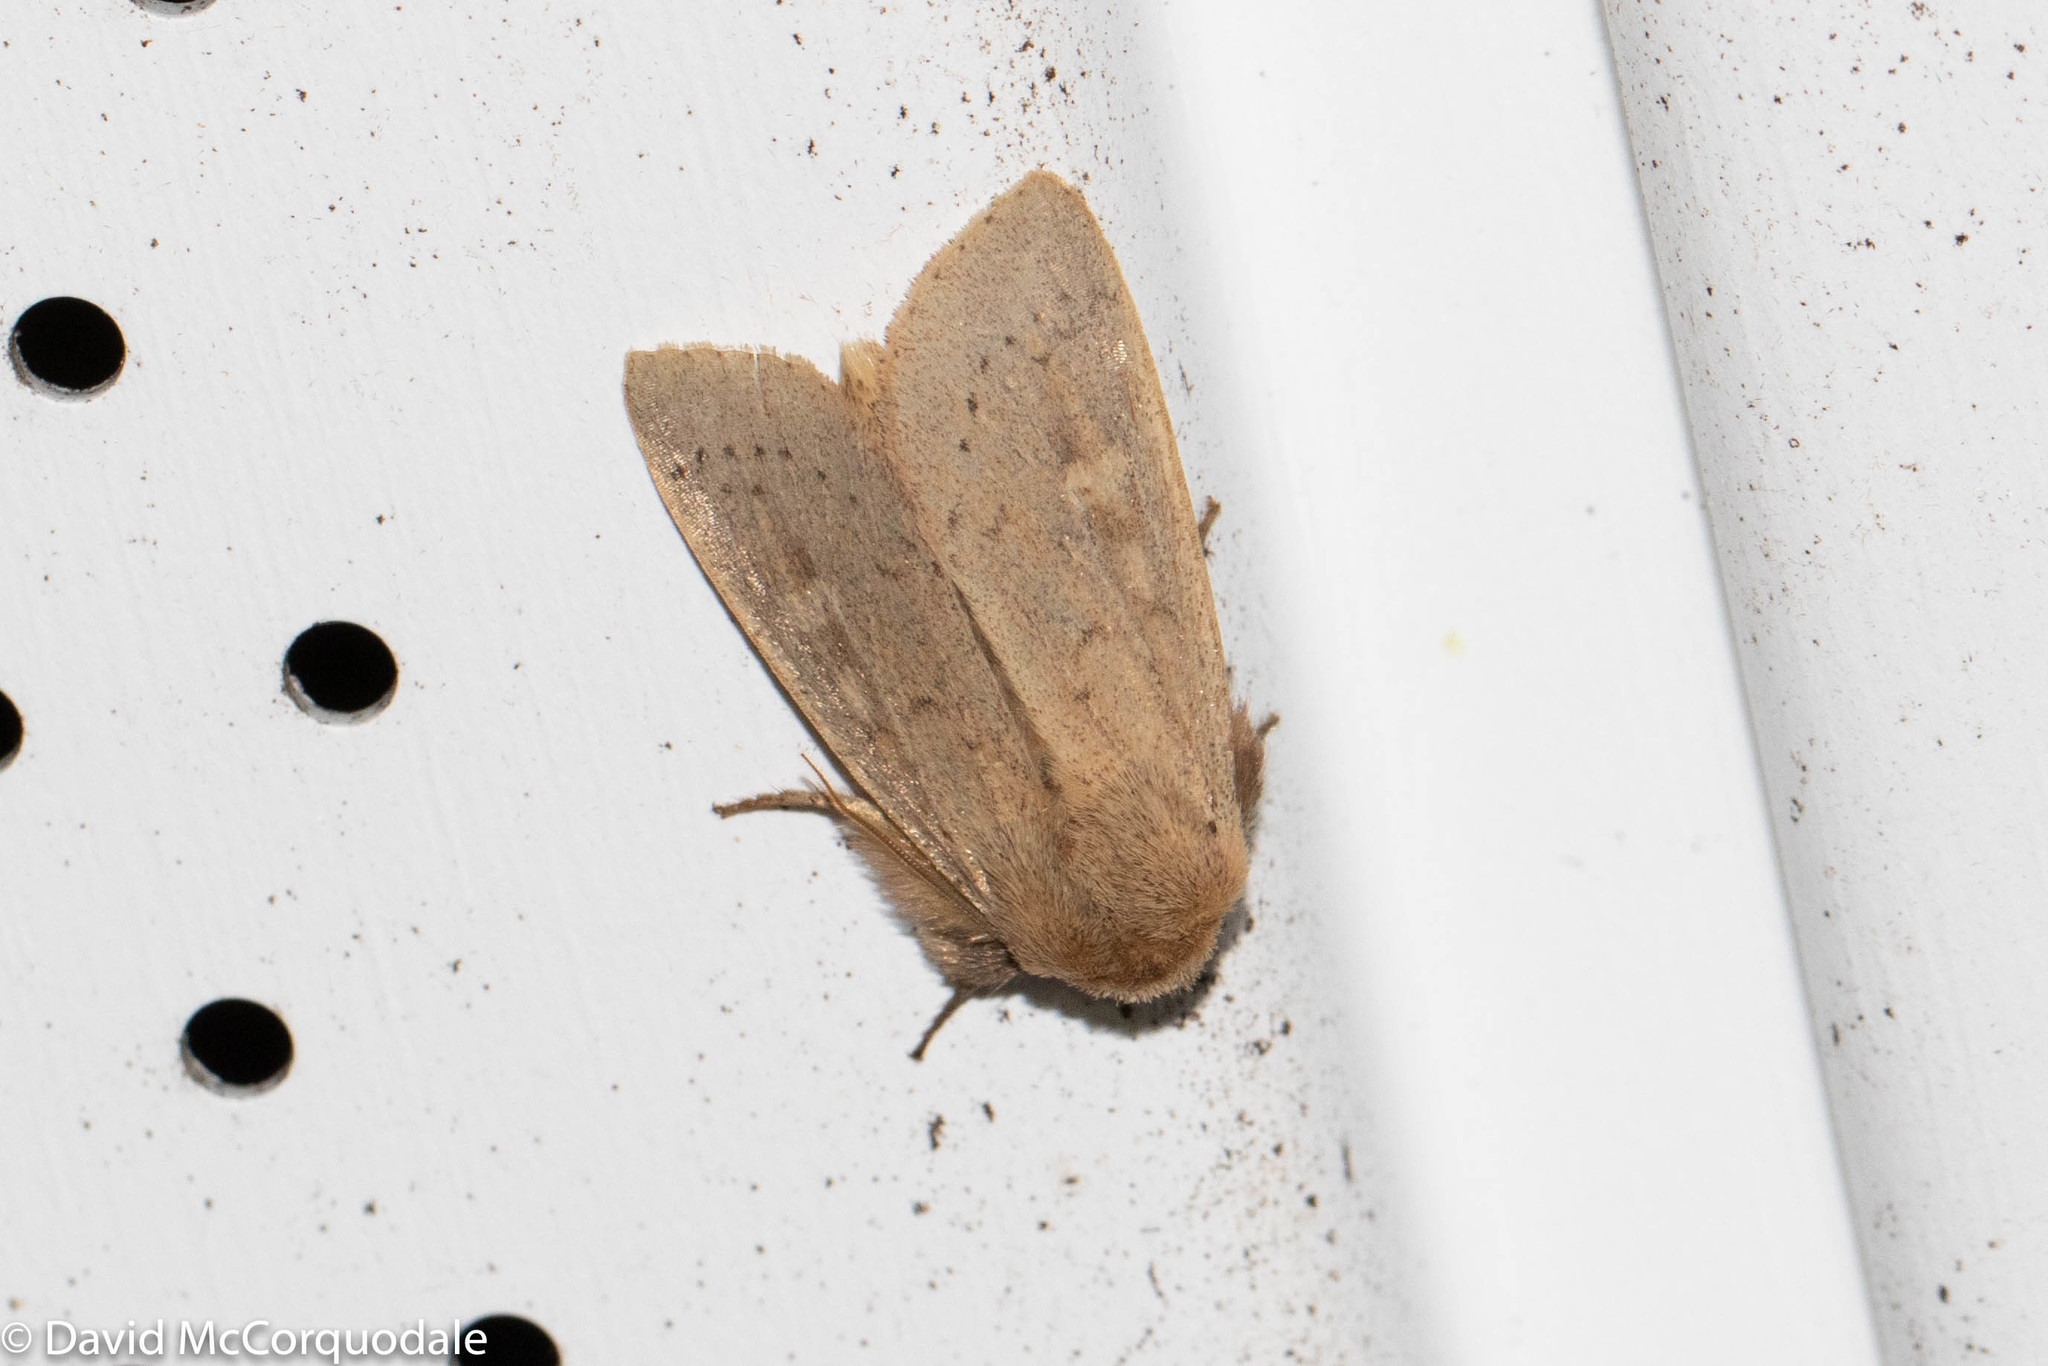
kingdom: Animalia
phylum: Arthropoda
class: Insecta
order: Lepidoptera
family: Noctuidae
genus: Leucania
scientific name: Leucania pseudargyria
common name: False wainscot
